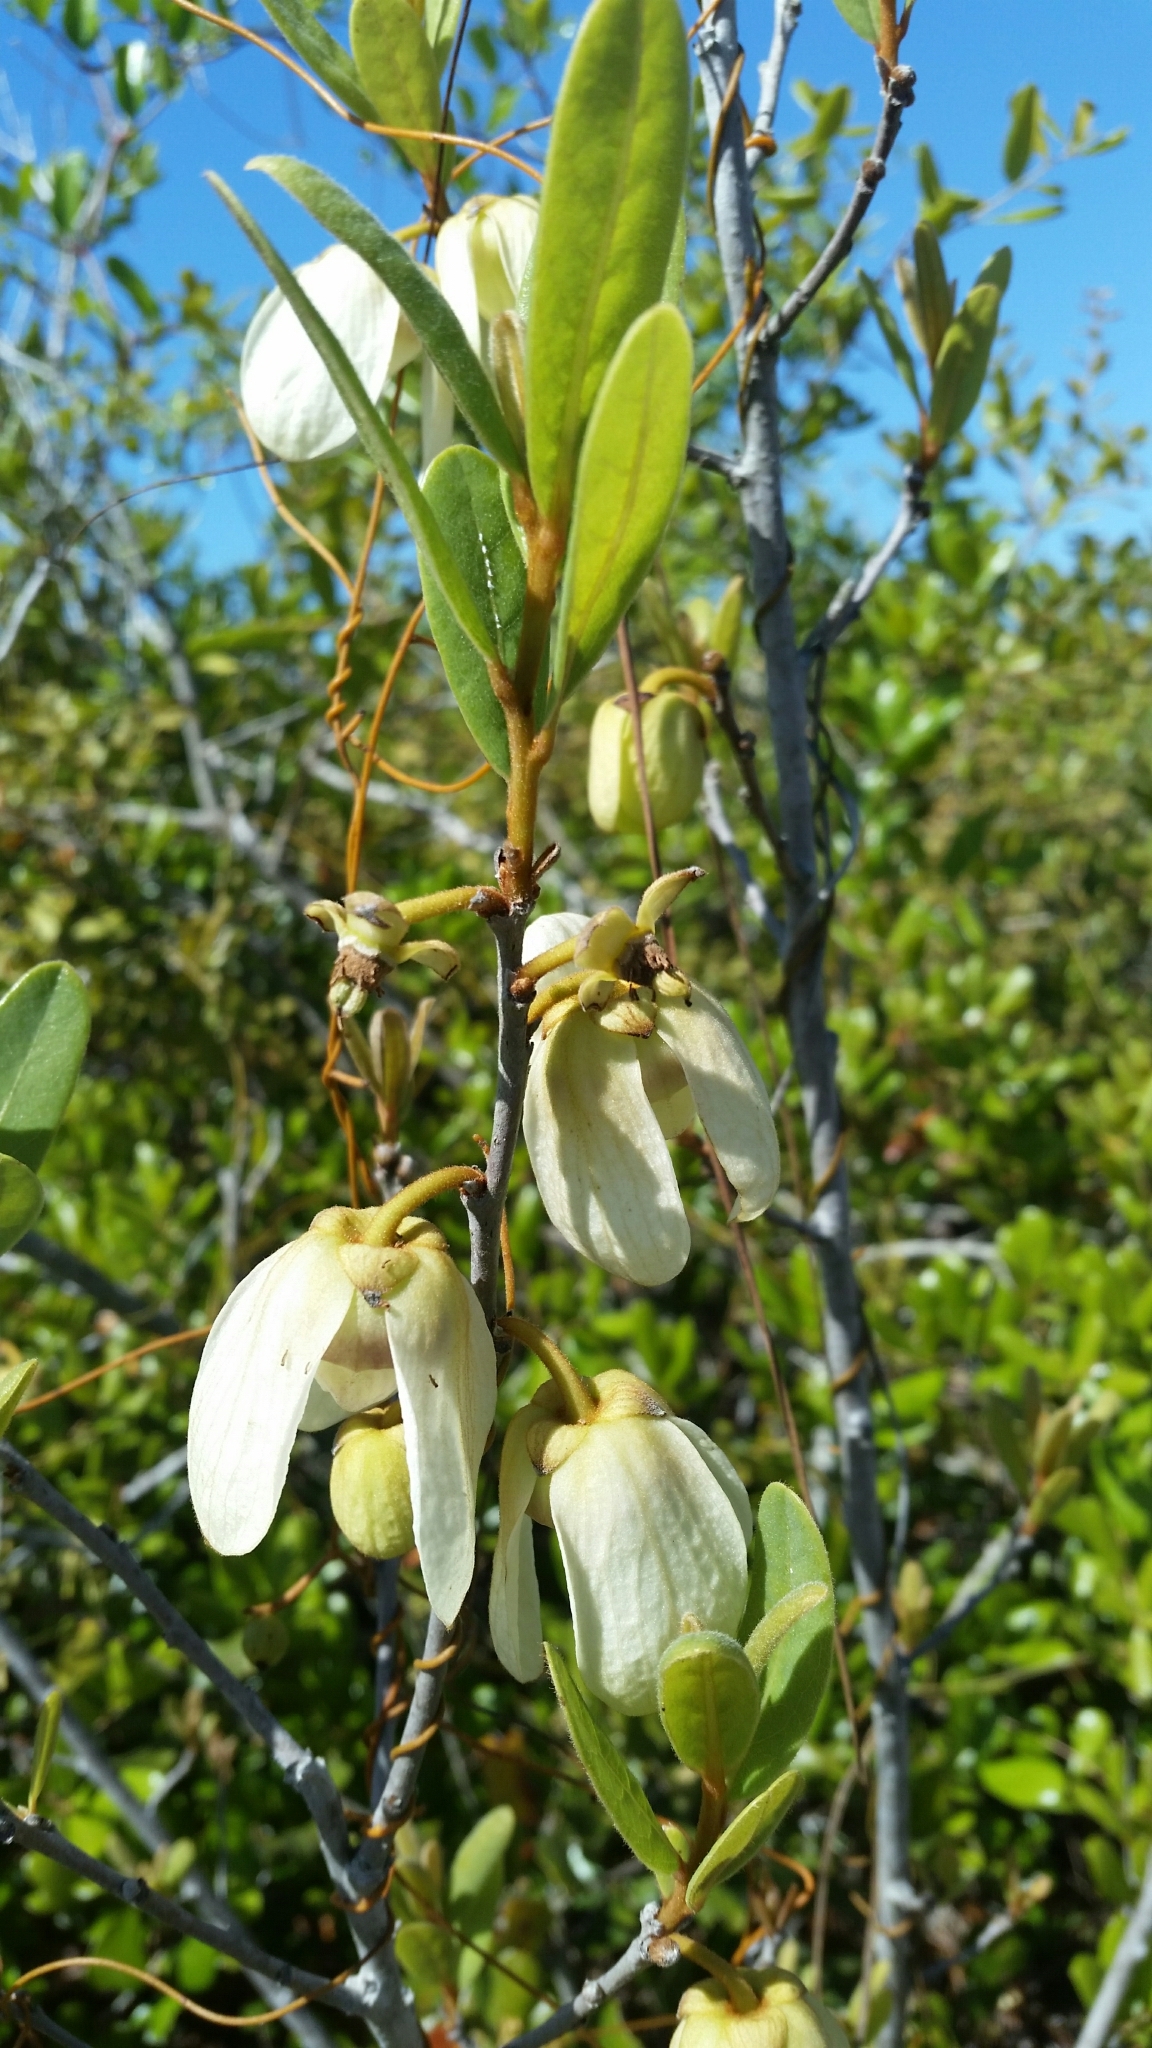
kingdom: Plantae
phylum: Tracheophyta
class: Magnoliopsida
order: Magnoliales
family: Annonaceae
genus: Asimina
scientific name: Asimina reticulata
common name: Flag pawpaw
